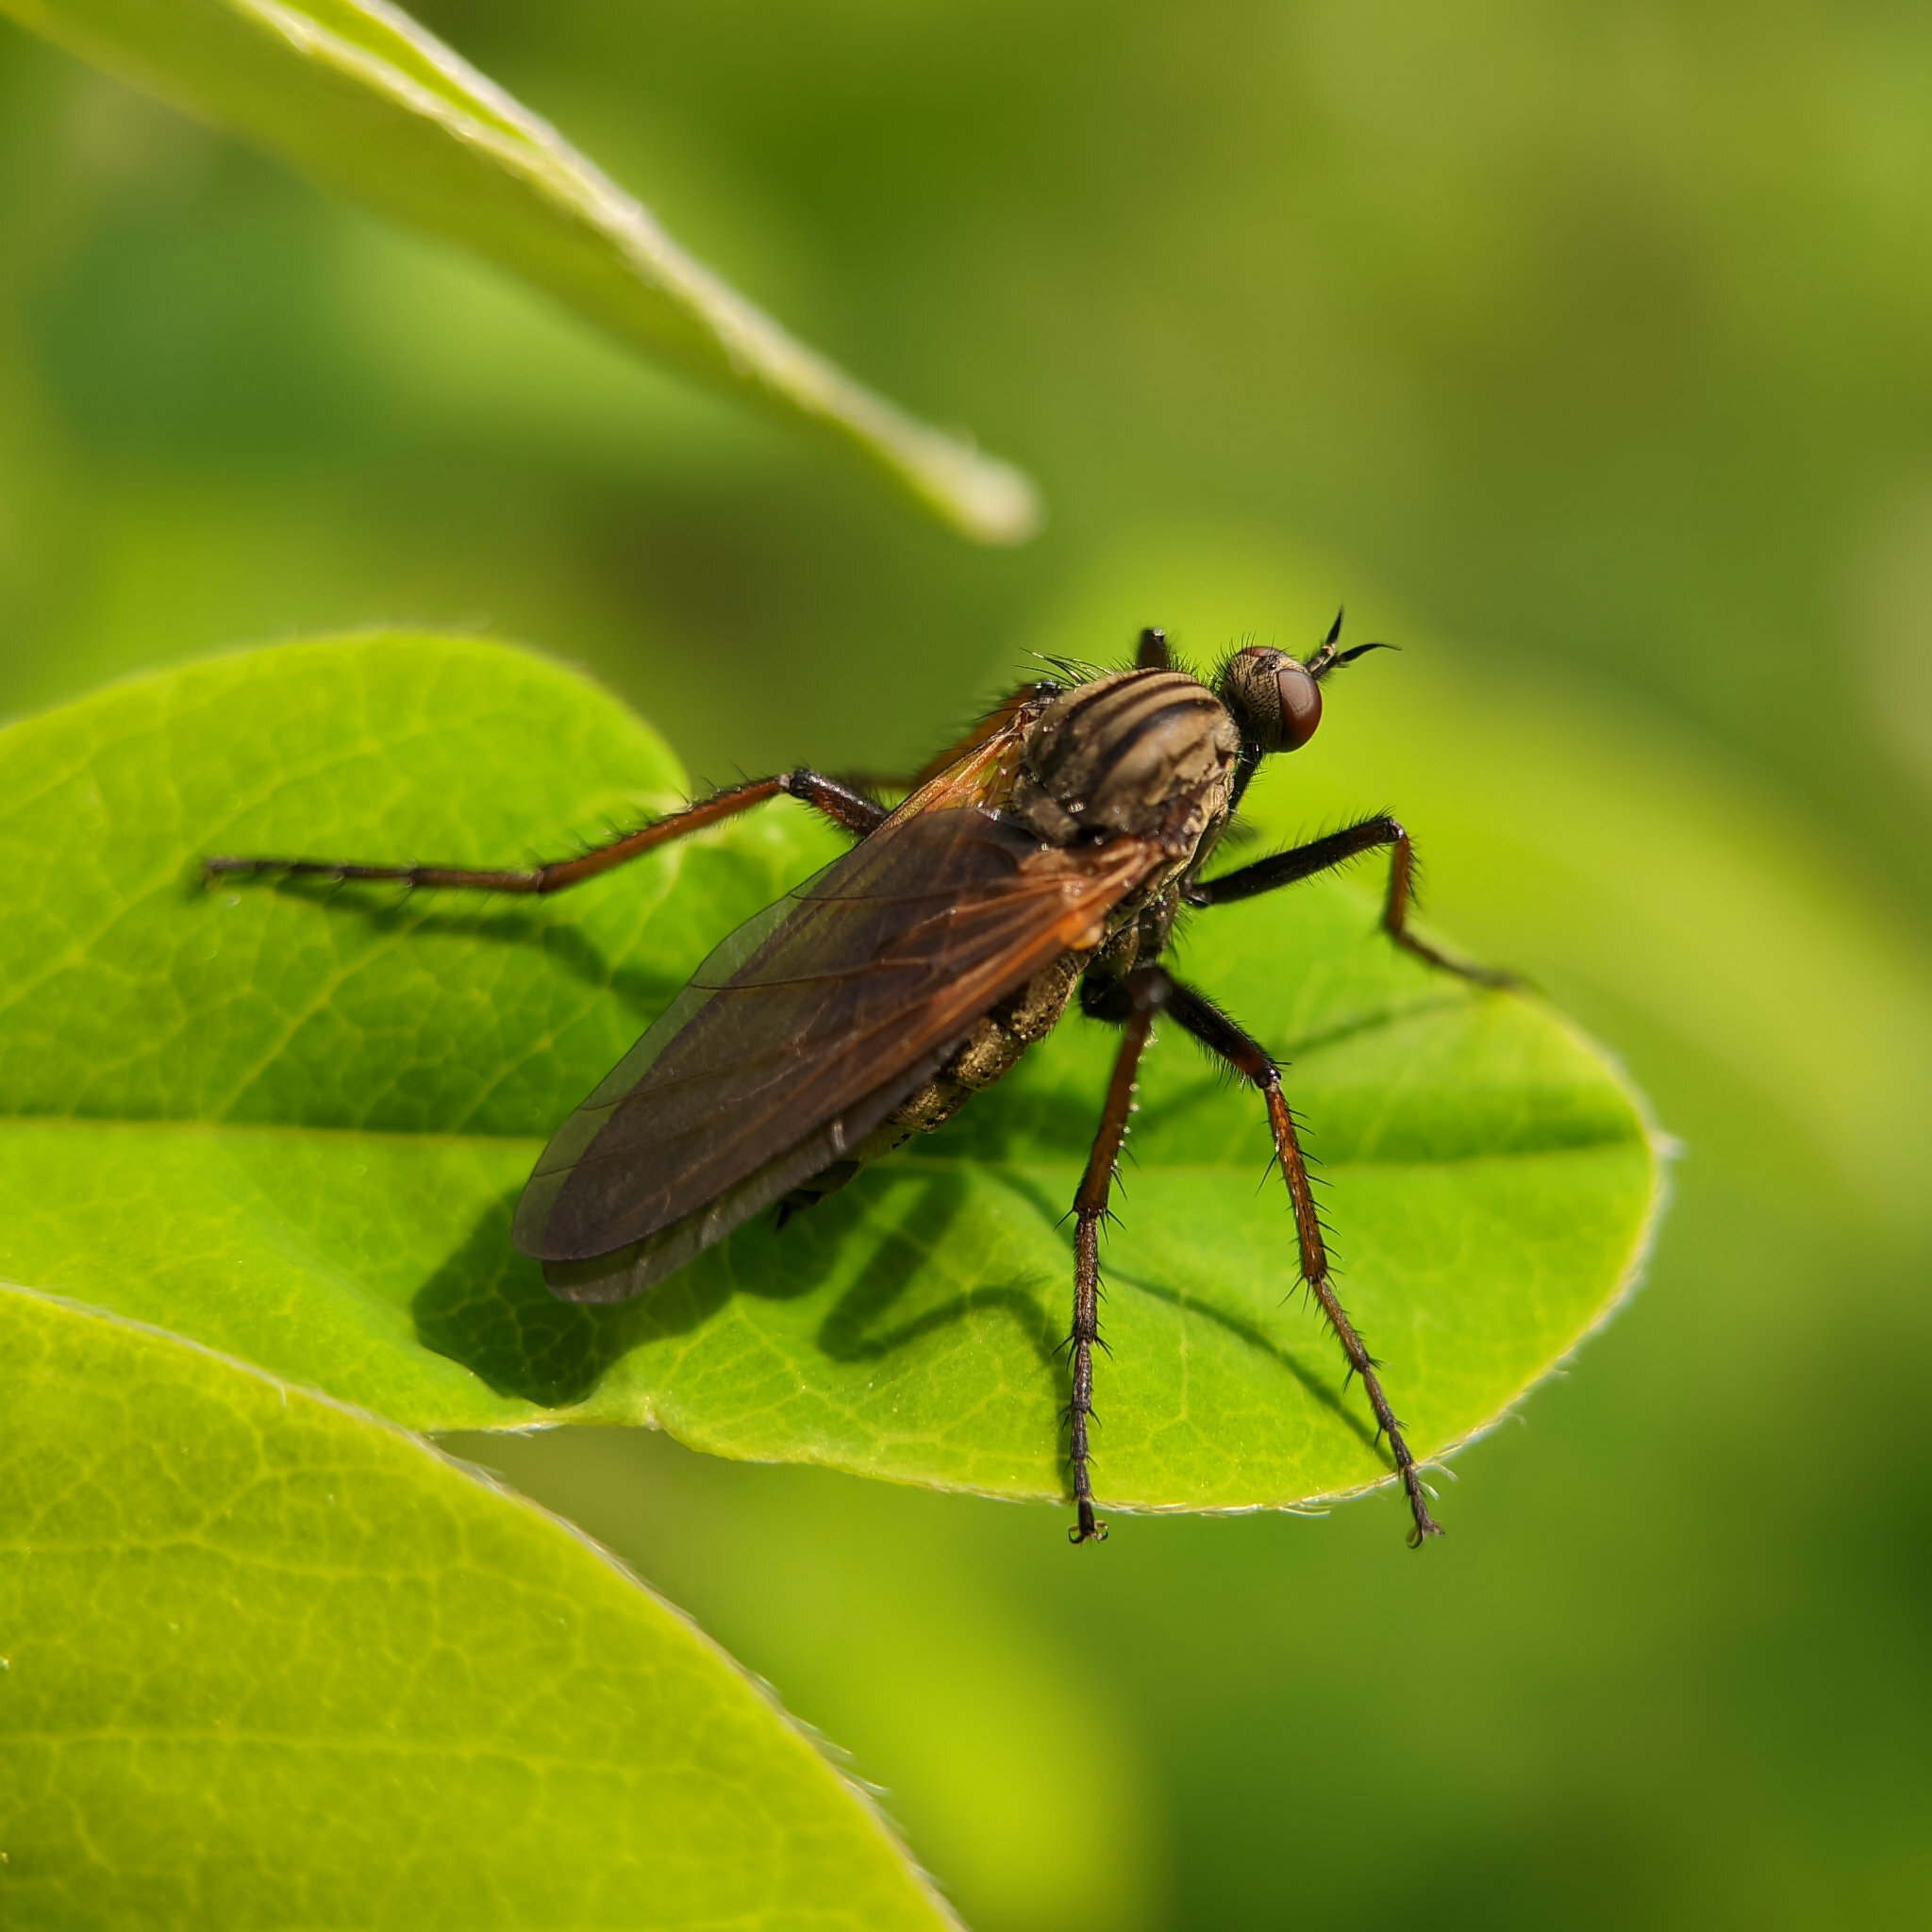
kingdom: Animalia
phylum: Arthropoda
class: Insecta
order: Diptera
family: Empididae
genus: Empis
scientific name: Empis tessellata
